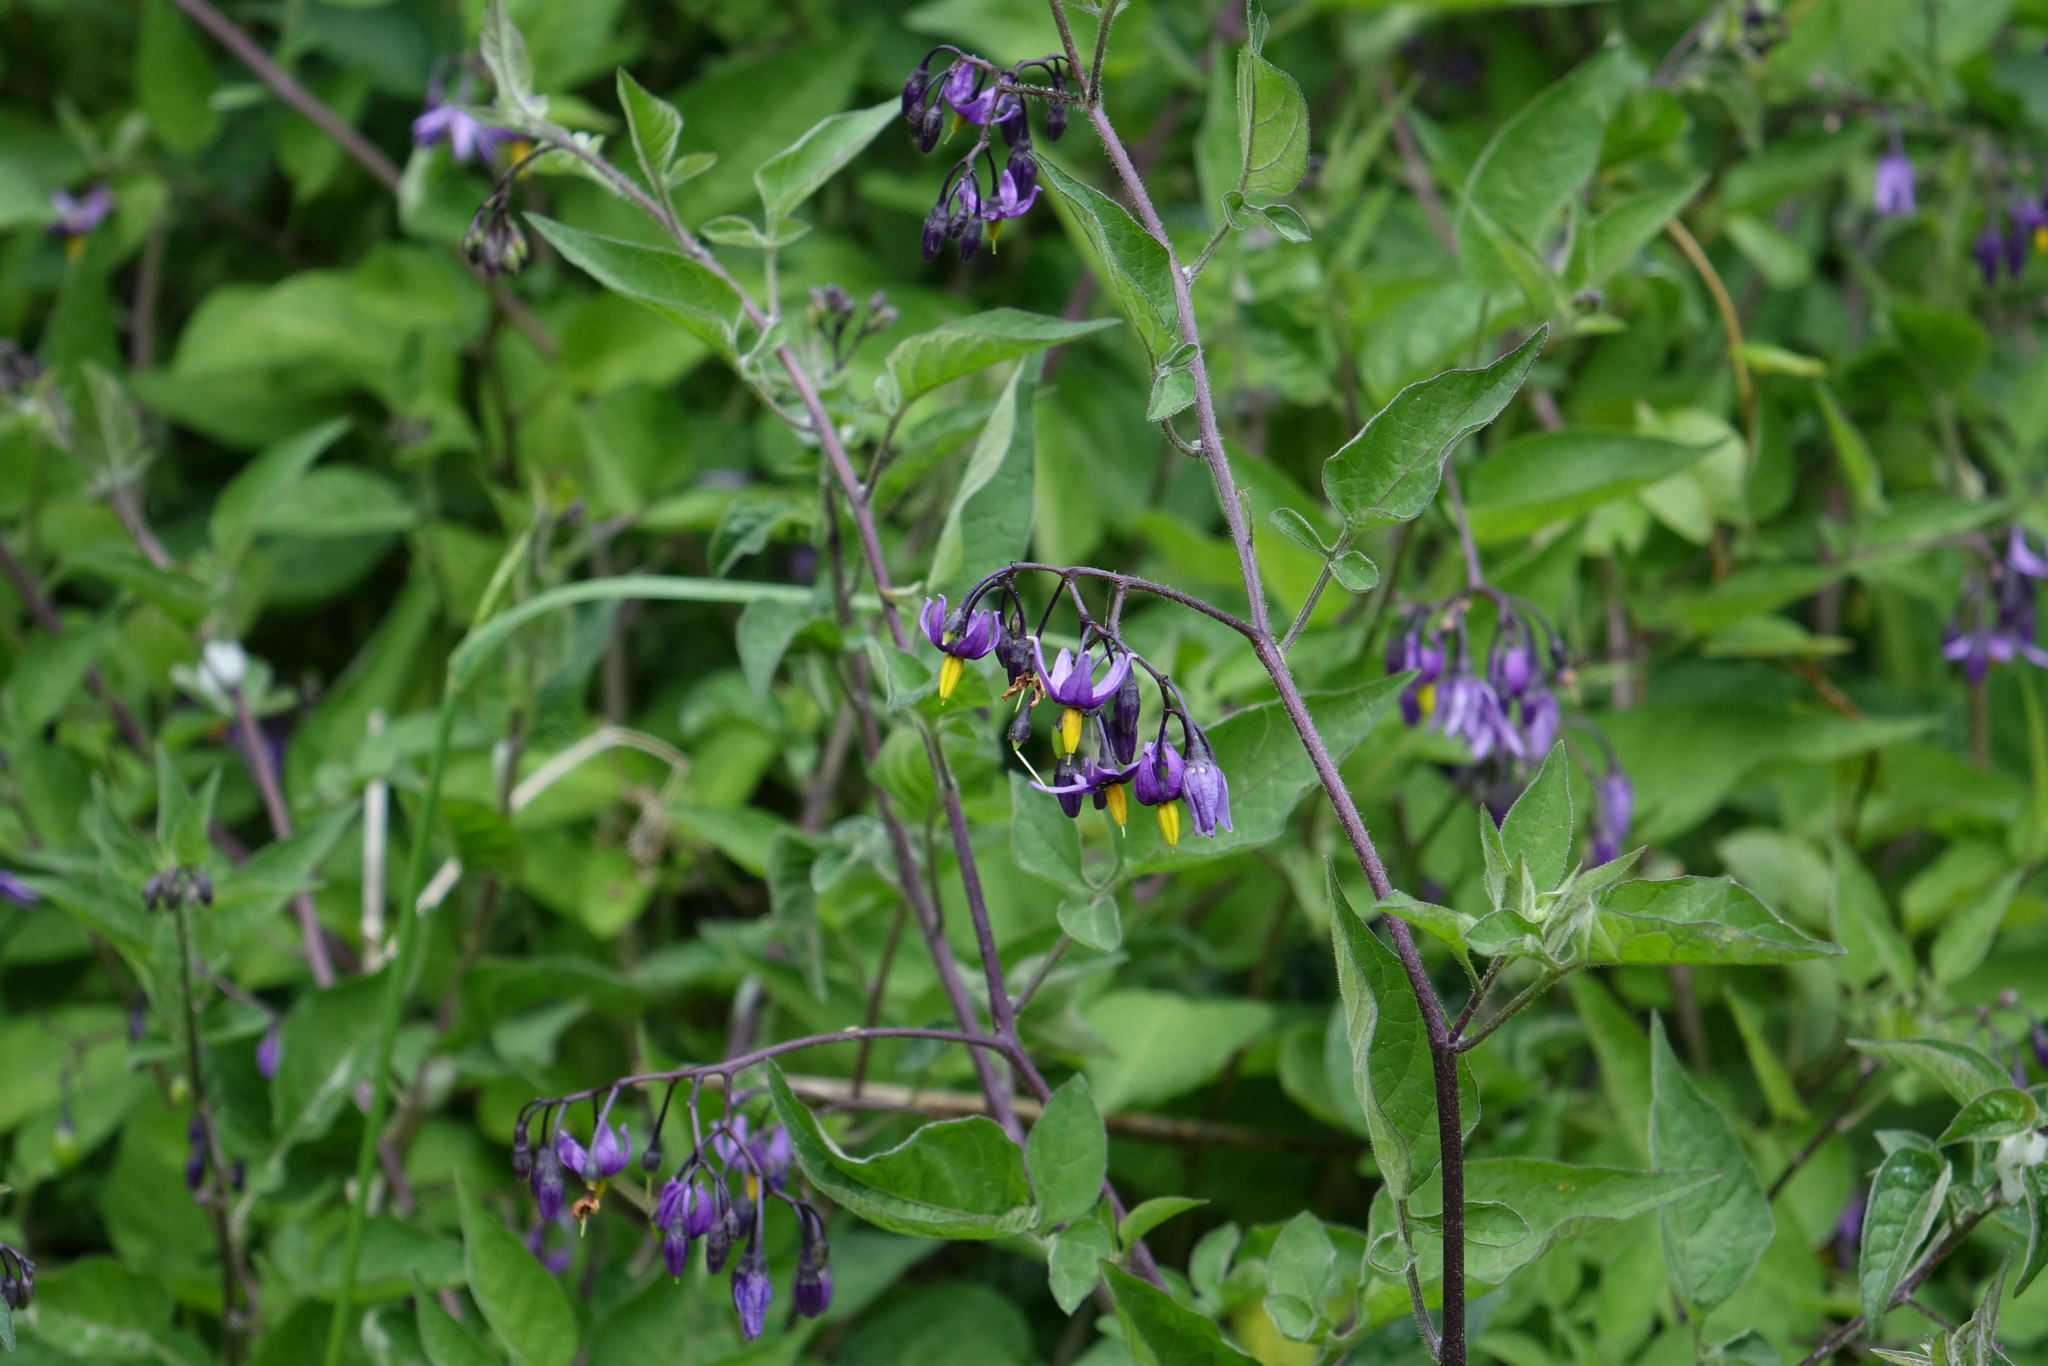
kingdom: Plantae
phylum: Tracheophyta
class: Magnoliopsida
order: Solanales
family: Solanaceae
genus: Solanum
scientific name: Solanum dulcamara
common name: Climbing nightshade
